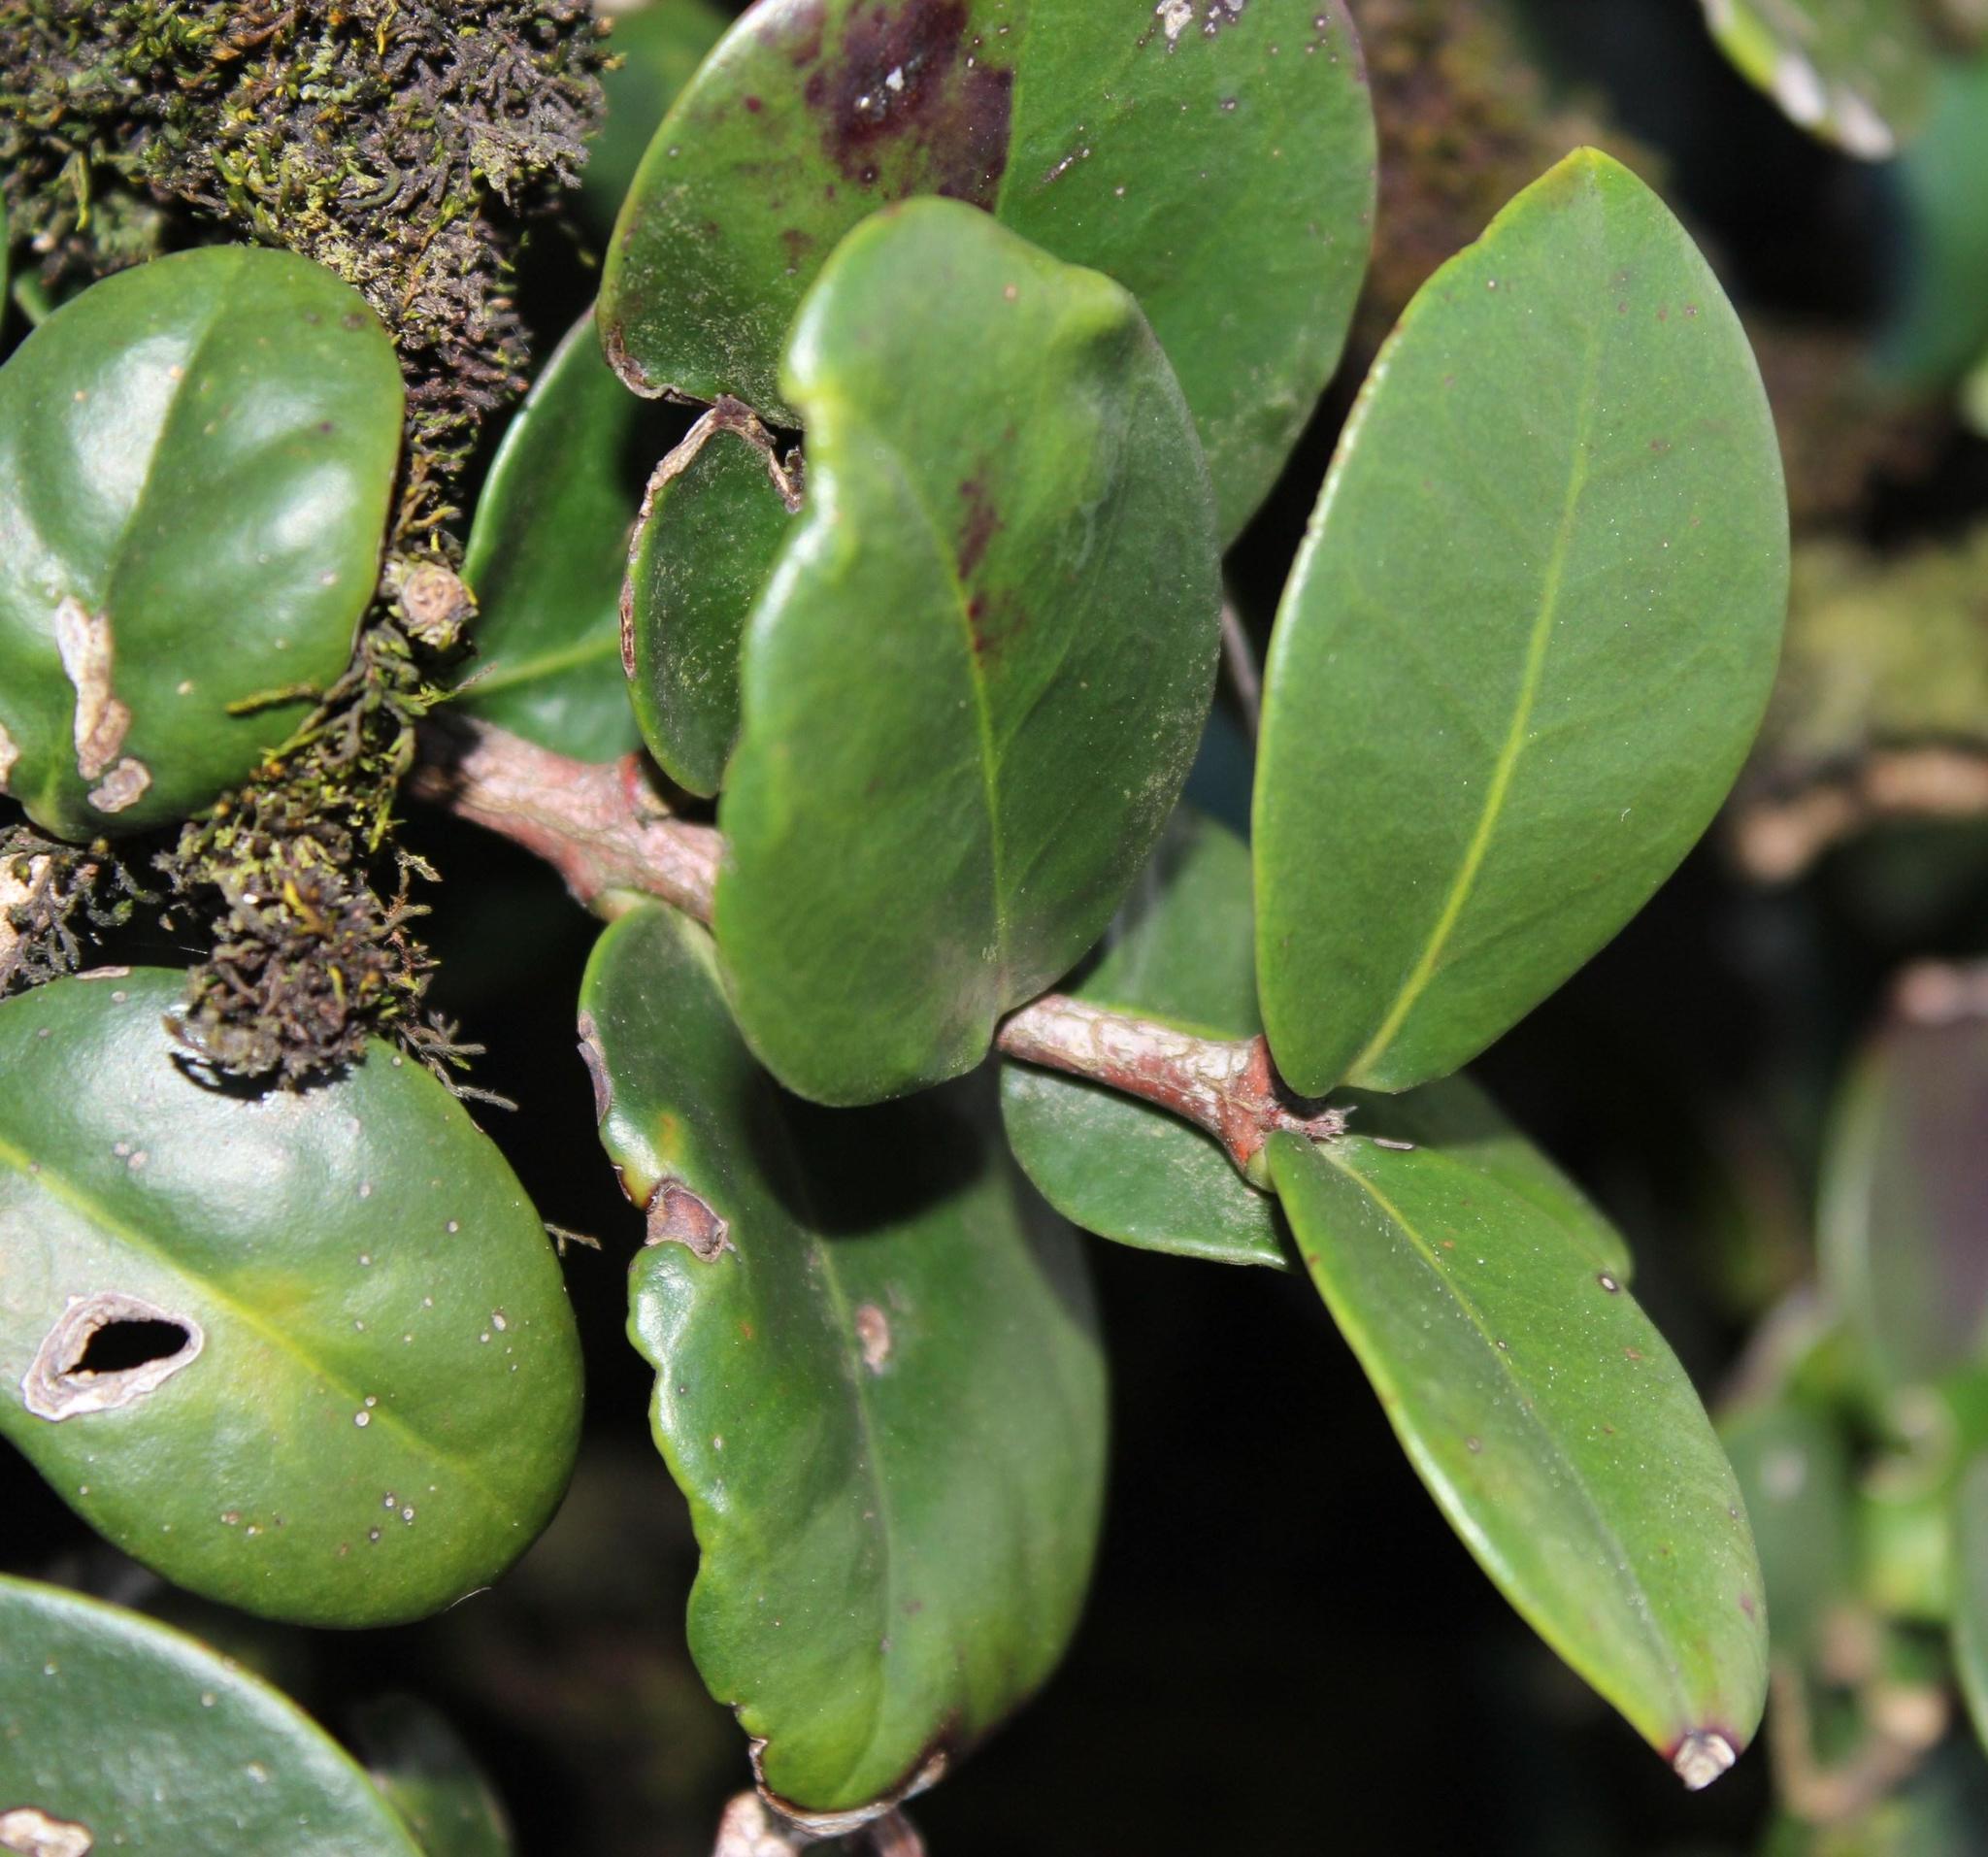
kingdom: Plantae
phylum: Tracheophyta
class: Magnoliopsida
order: Celastrales
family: Celastraceae
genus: Maurocenia
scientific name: Maurocenia frangula
